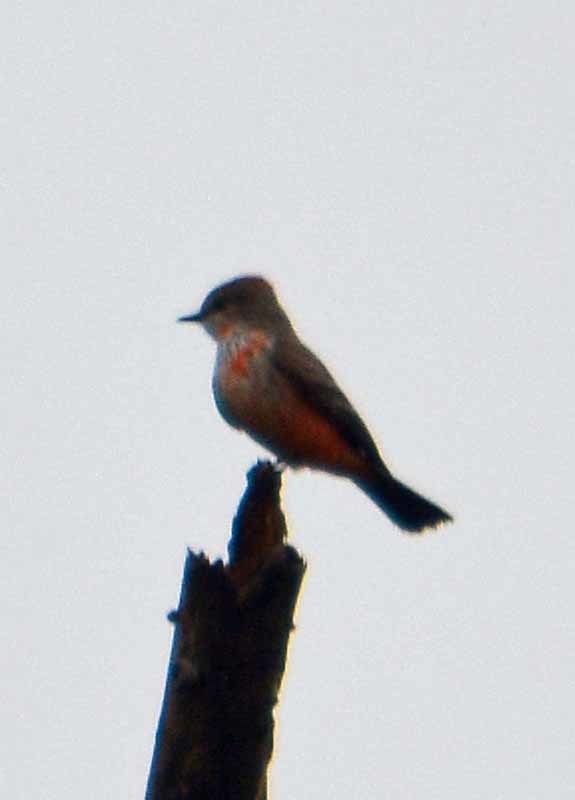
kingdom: Animalia
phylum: Chordata
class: Aves
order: Passeriformes
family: Tyrannidae
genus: Pyrocephalus
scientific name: Pyrocephalus rubinus
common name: Vermilion flycatcher
